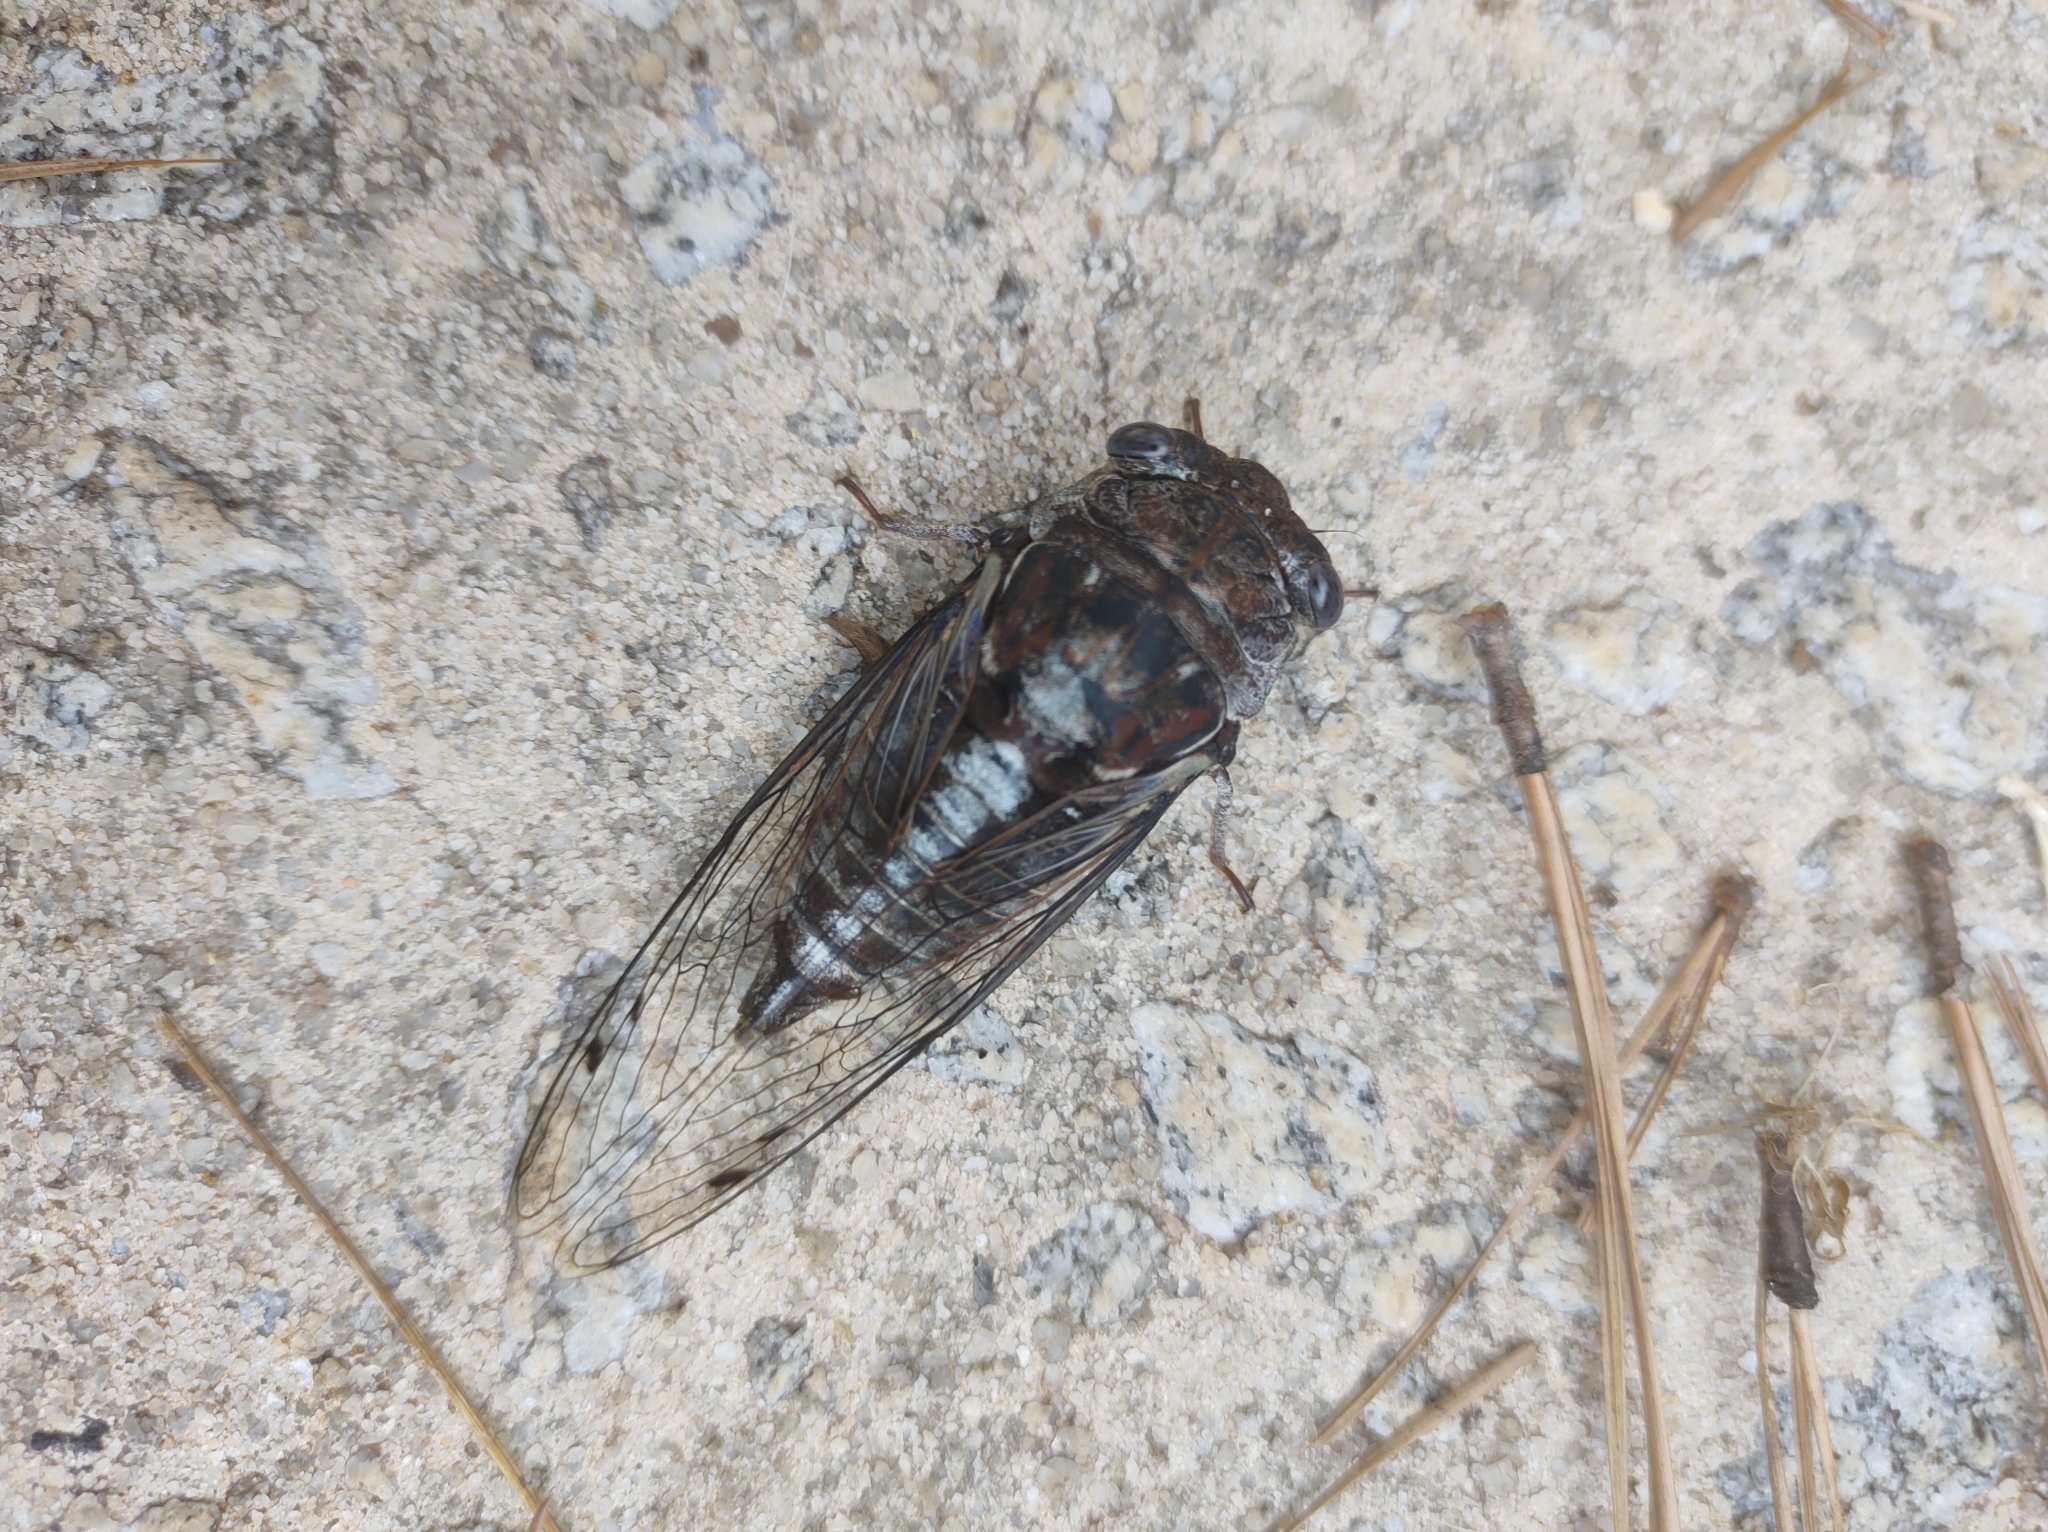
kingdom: Animalia
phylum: Arthropoda
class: Insecta
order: Hemiptera
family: Cicadidae
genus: Megatibicen
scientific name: Megatibicen figuratus
